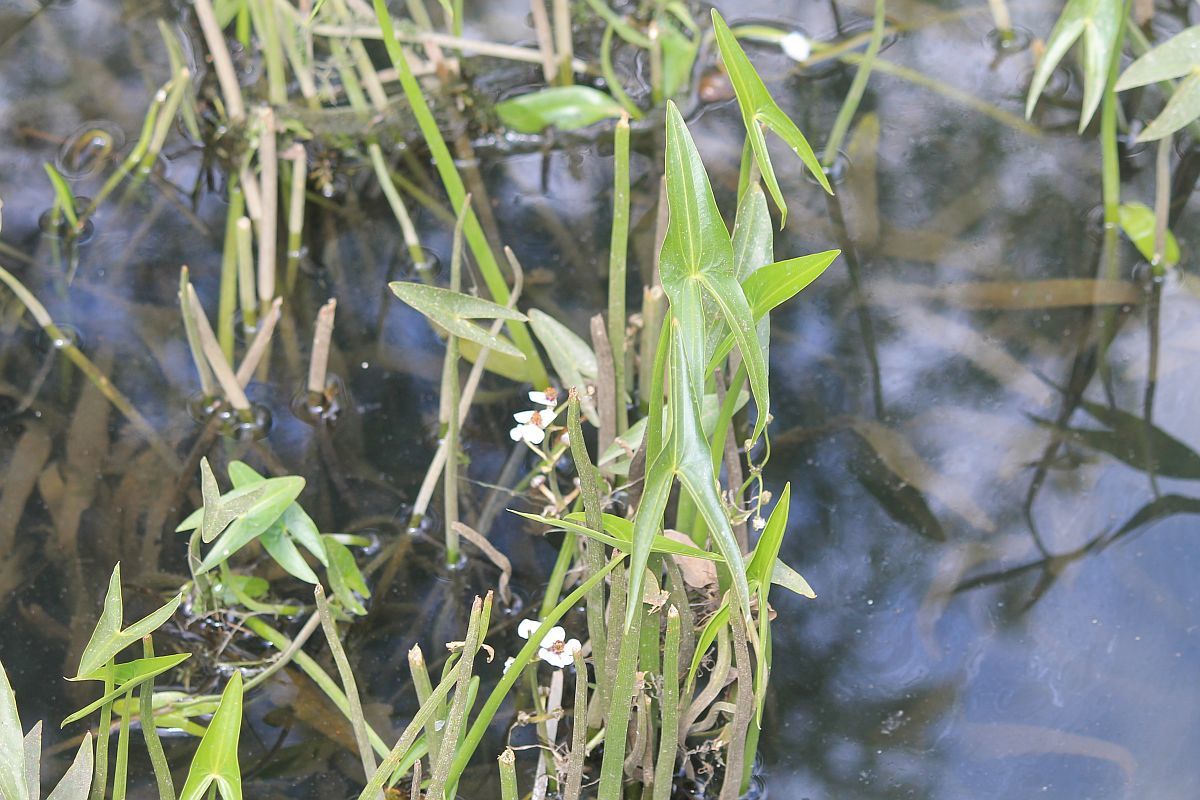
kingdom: Plantae
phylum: Tracheophyta
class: Liliopsida
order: Alismatales
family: Alismataceae
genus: Sagittaria
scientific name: Sagittaria sagittifolia
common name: Arrowhead
